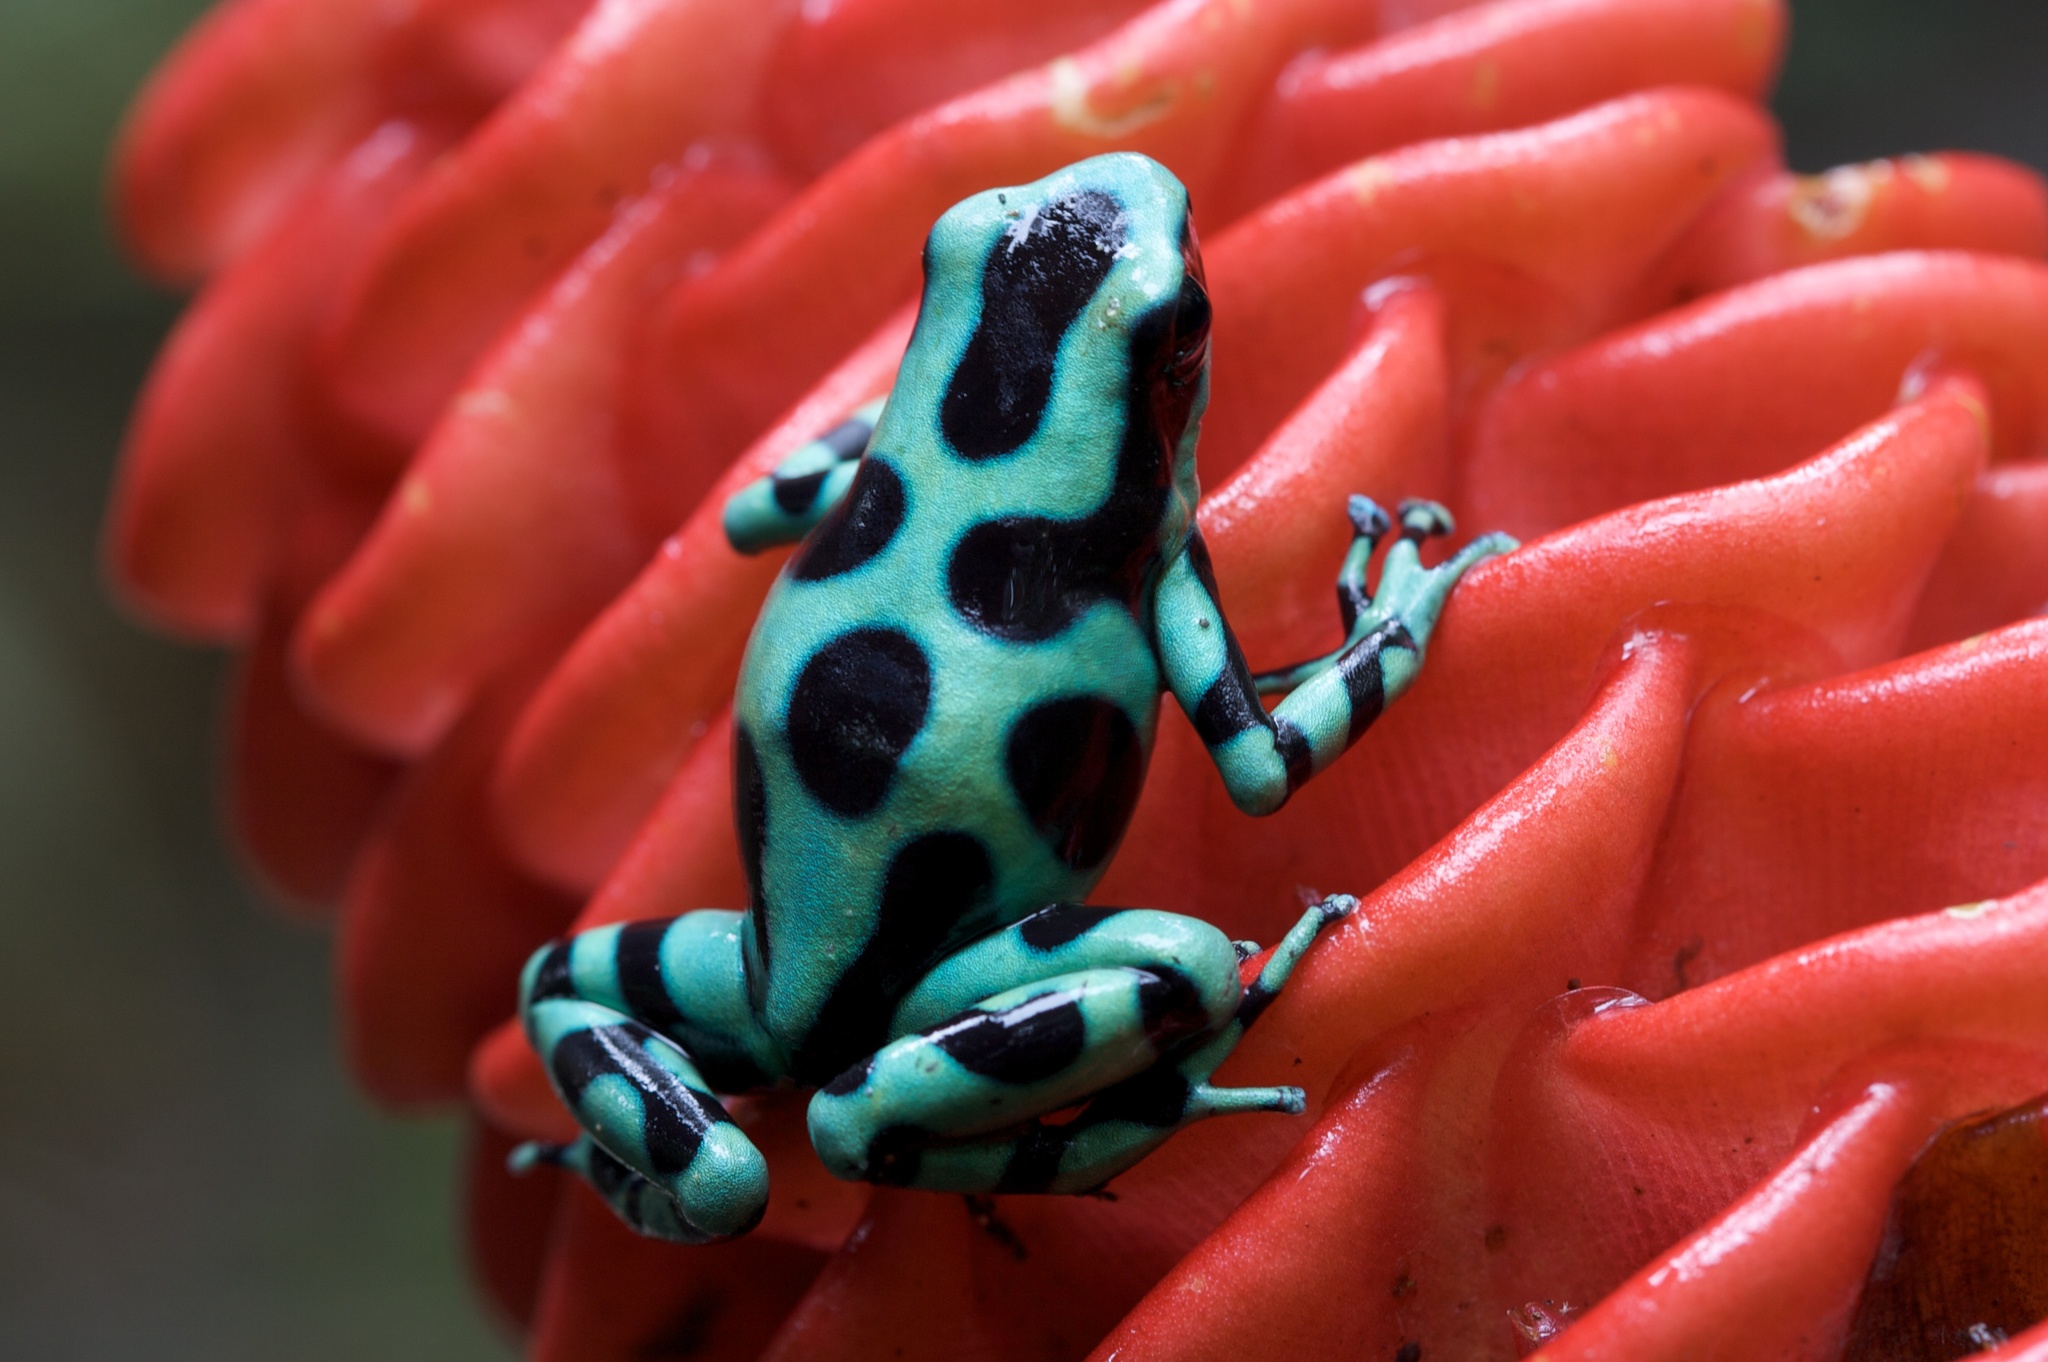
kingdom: Animalia
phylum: Chordata
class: Amphibia
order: Anura
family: Dendrobatidae
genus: Dendrobates
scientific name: Dendrobates auratus
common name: Green and black poison dart frog
